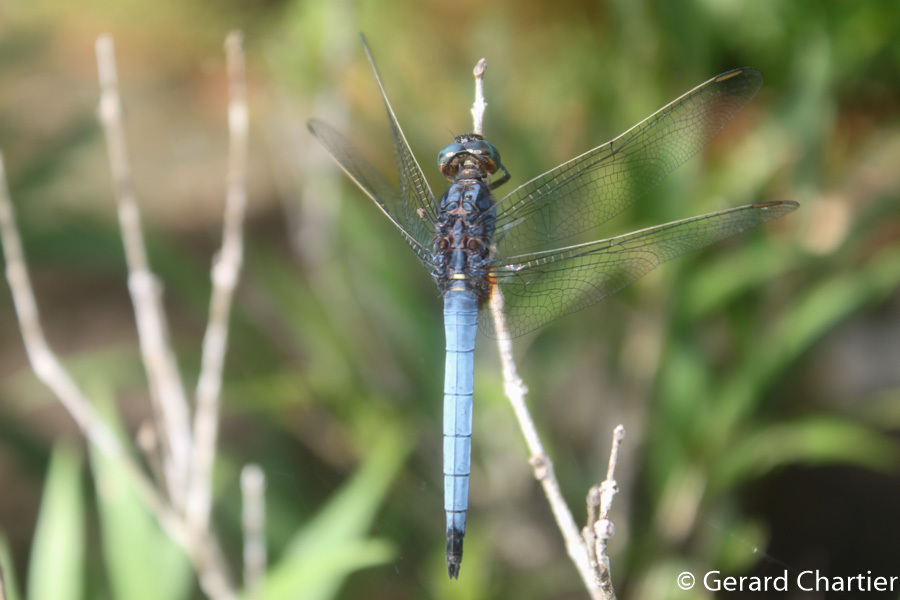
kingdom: Animalia
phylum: Arthropoda
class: Insecta
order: Odonata
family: Libellulidae
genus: Orthetrum
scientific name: Orthetrum glaucum
